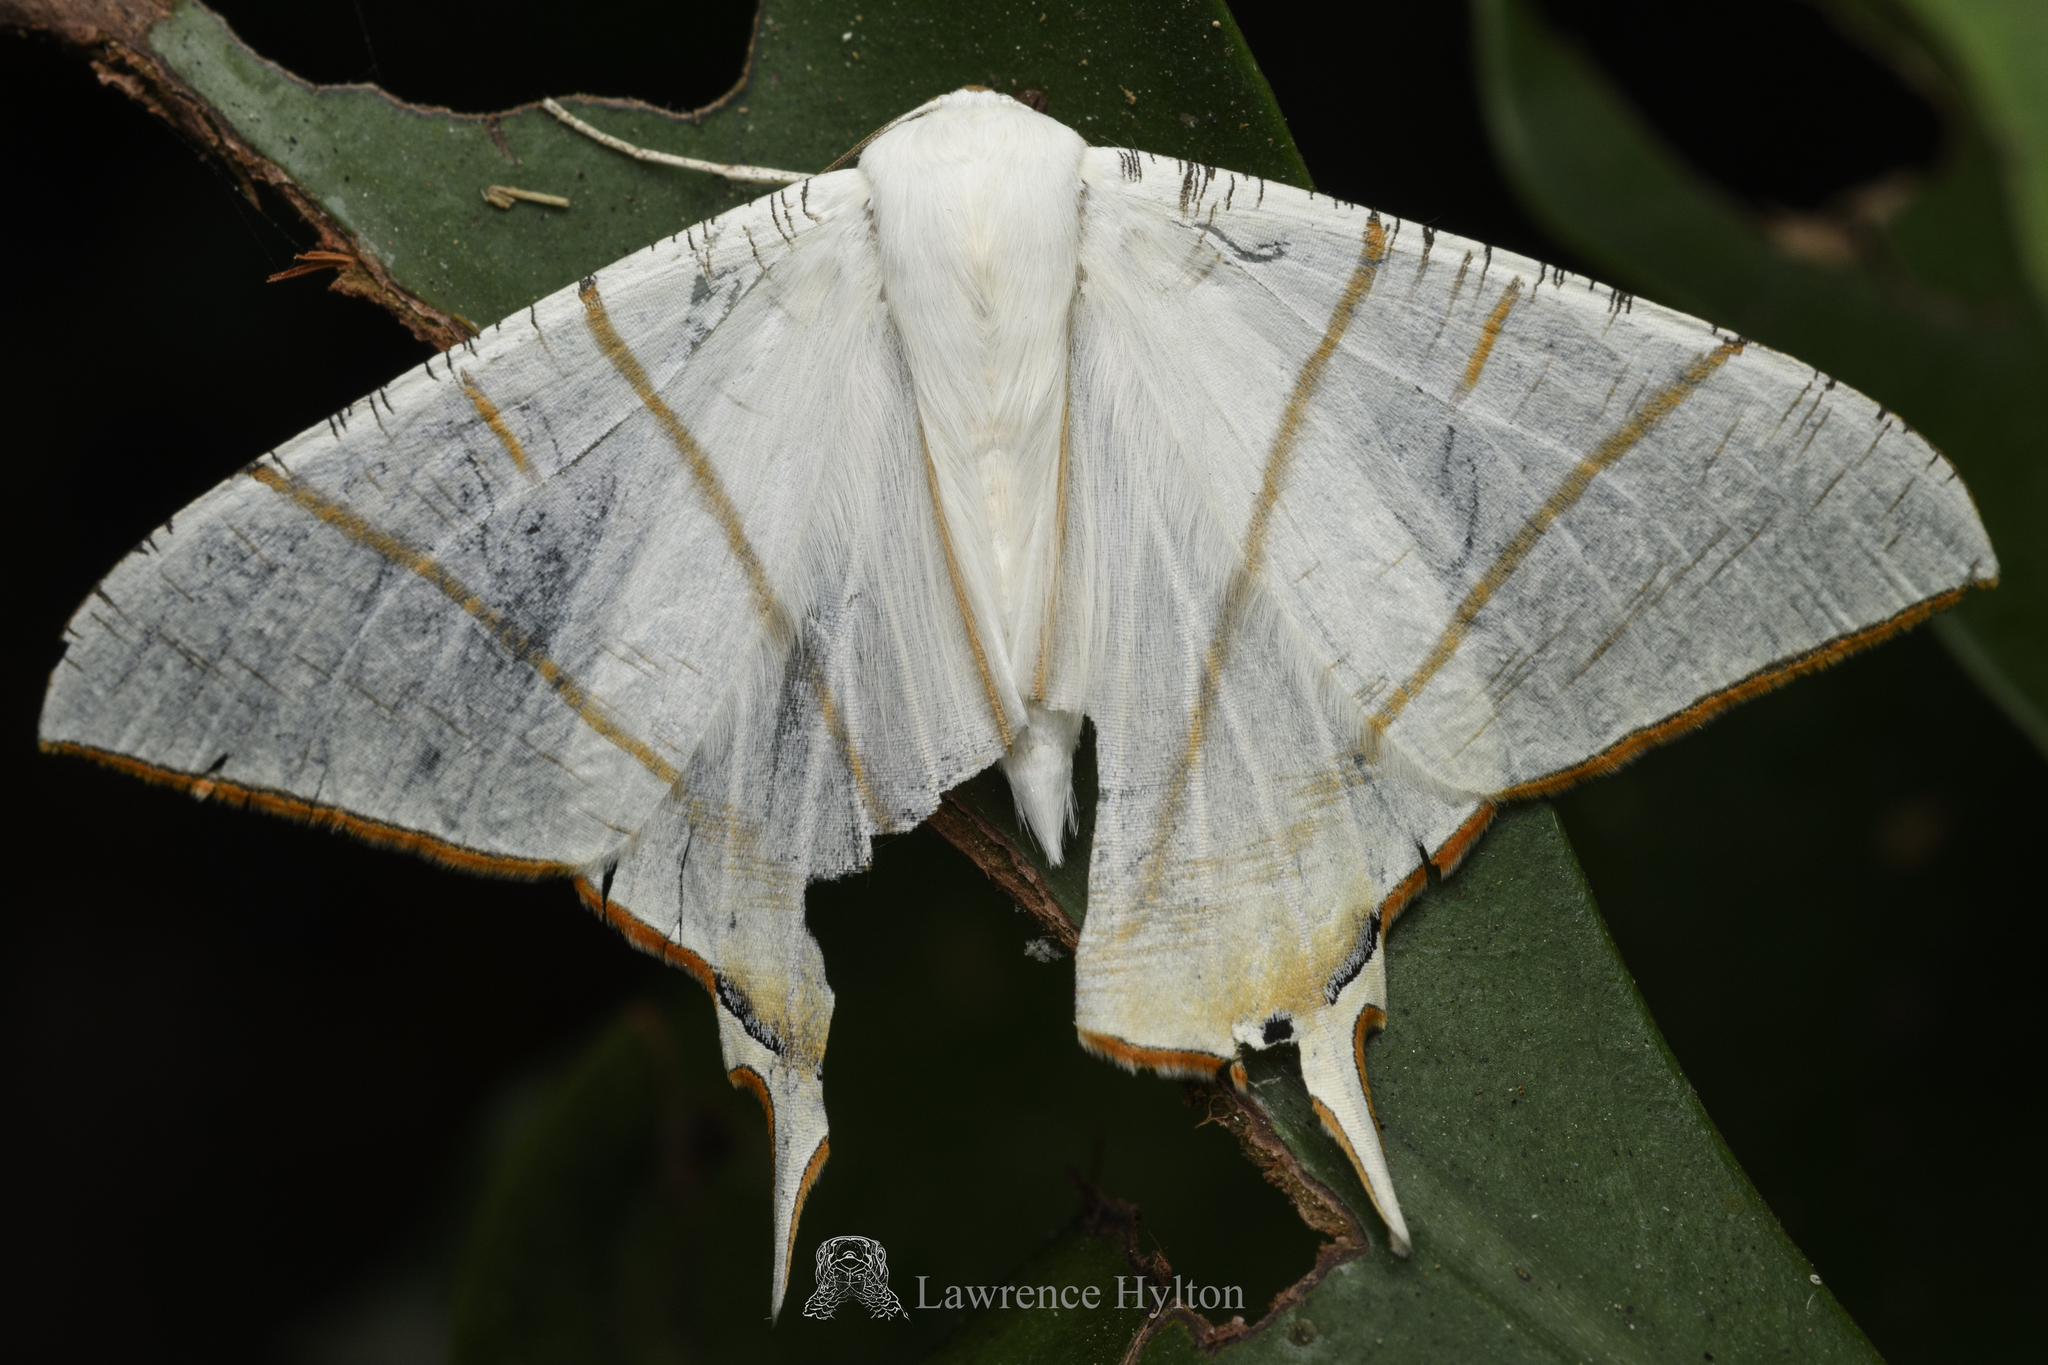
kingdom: Animalia
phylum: Arthropoda
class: Insecta
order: Lepidoptera
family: Geometridae
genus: Ourapteryx
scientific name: Ourapteryx clara
